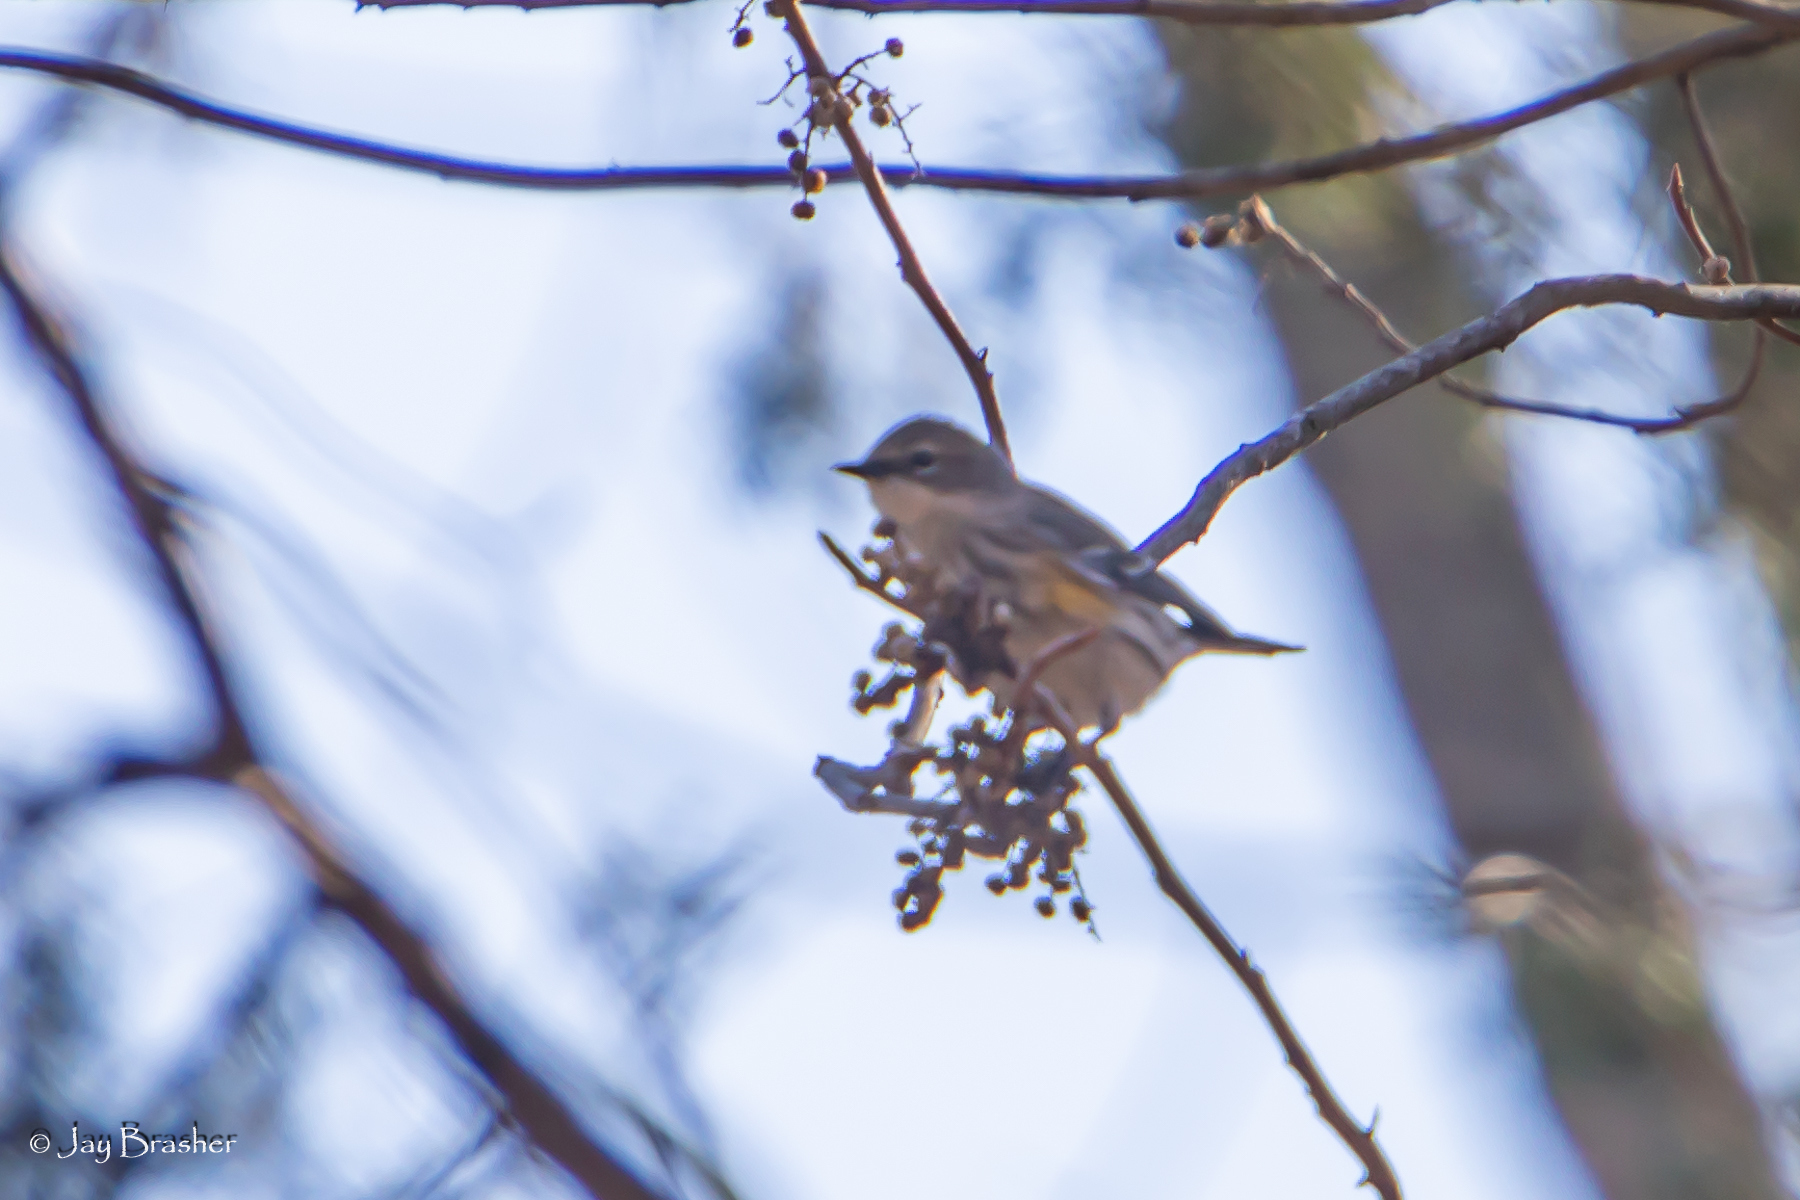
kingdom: Animalia
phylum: Chordata
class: Aves
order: Passeriformes
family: Parulidae
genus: Setophaga
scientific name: Setophaga coronata
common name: Myrtle warbler
